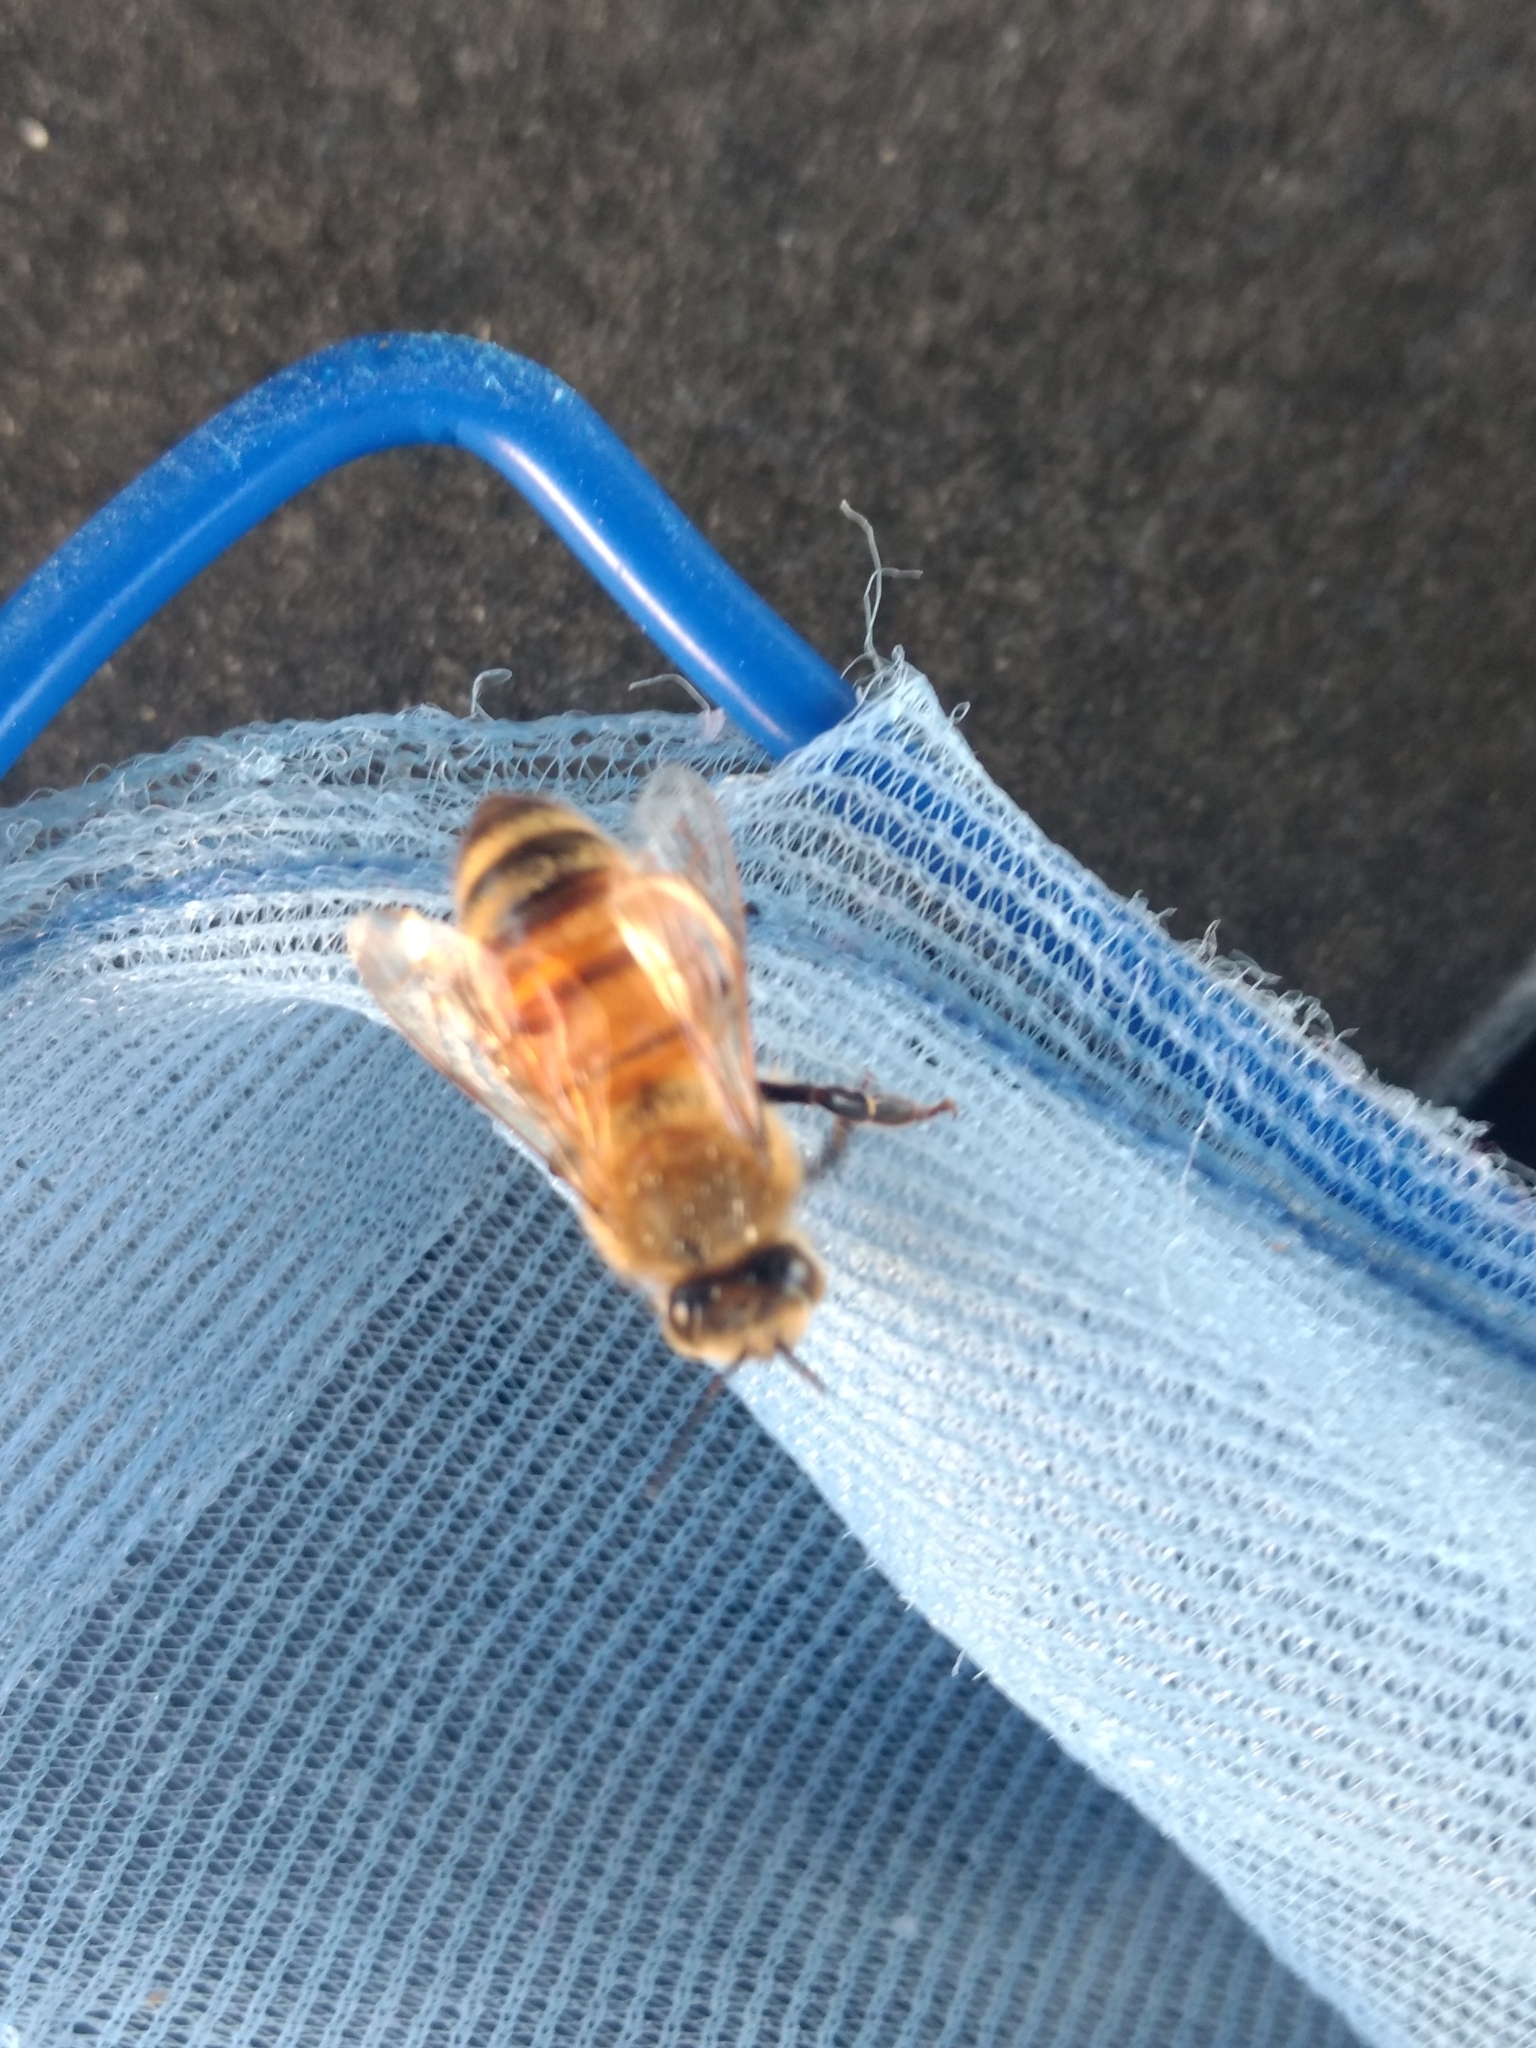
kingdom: Animalia
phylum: Arthropoda
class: Insecta
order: Hymenoptera
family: Apidae
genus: Apis
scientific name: Apis mellifera
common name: Honey bee
